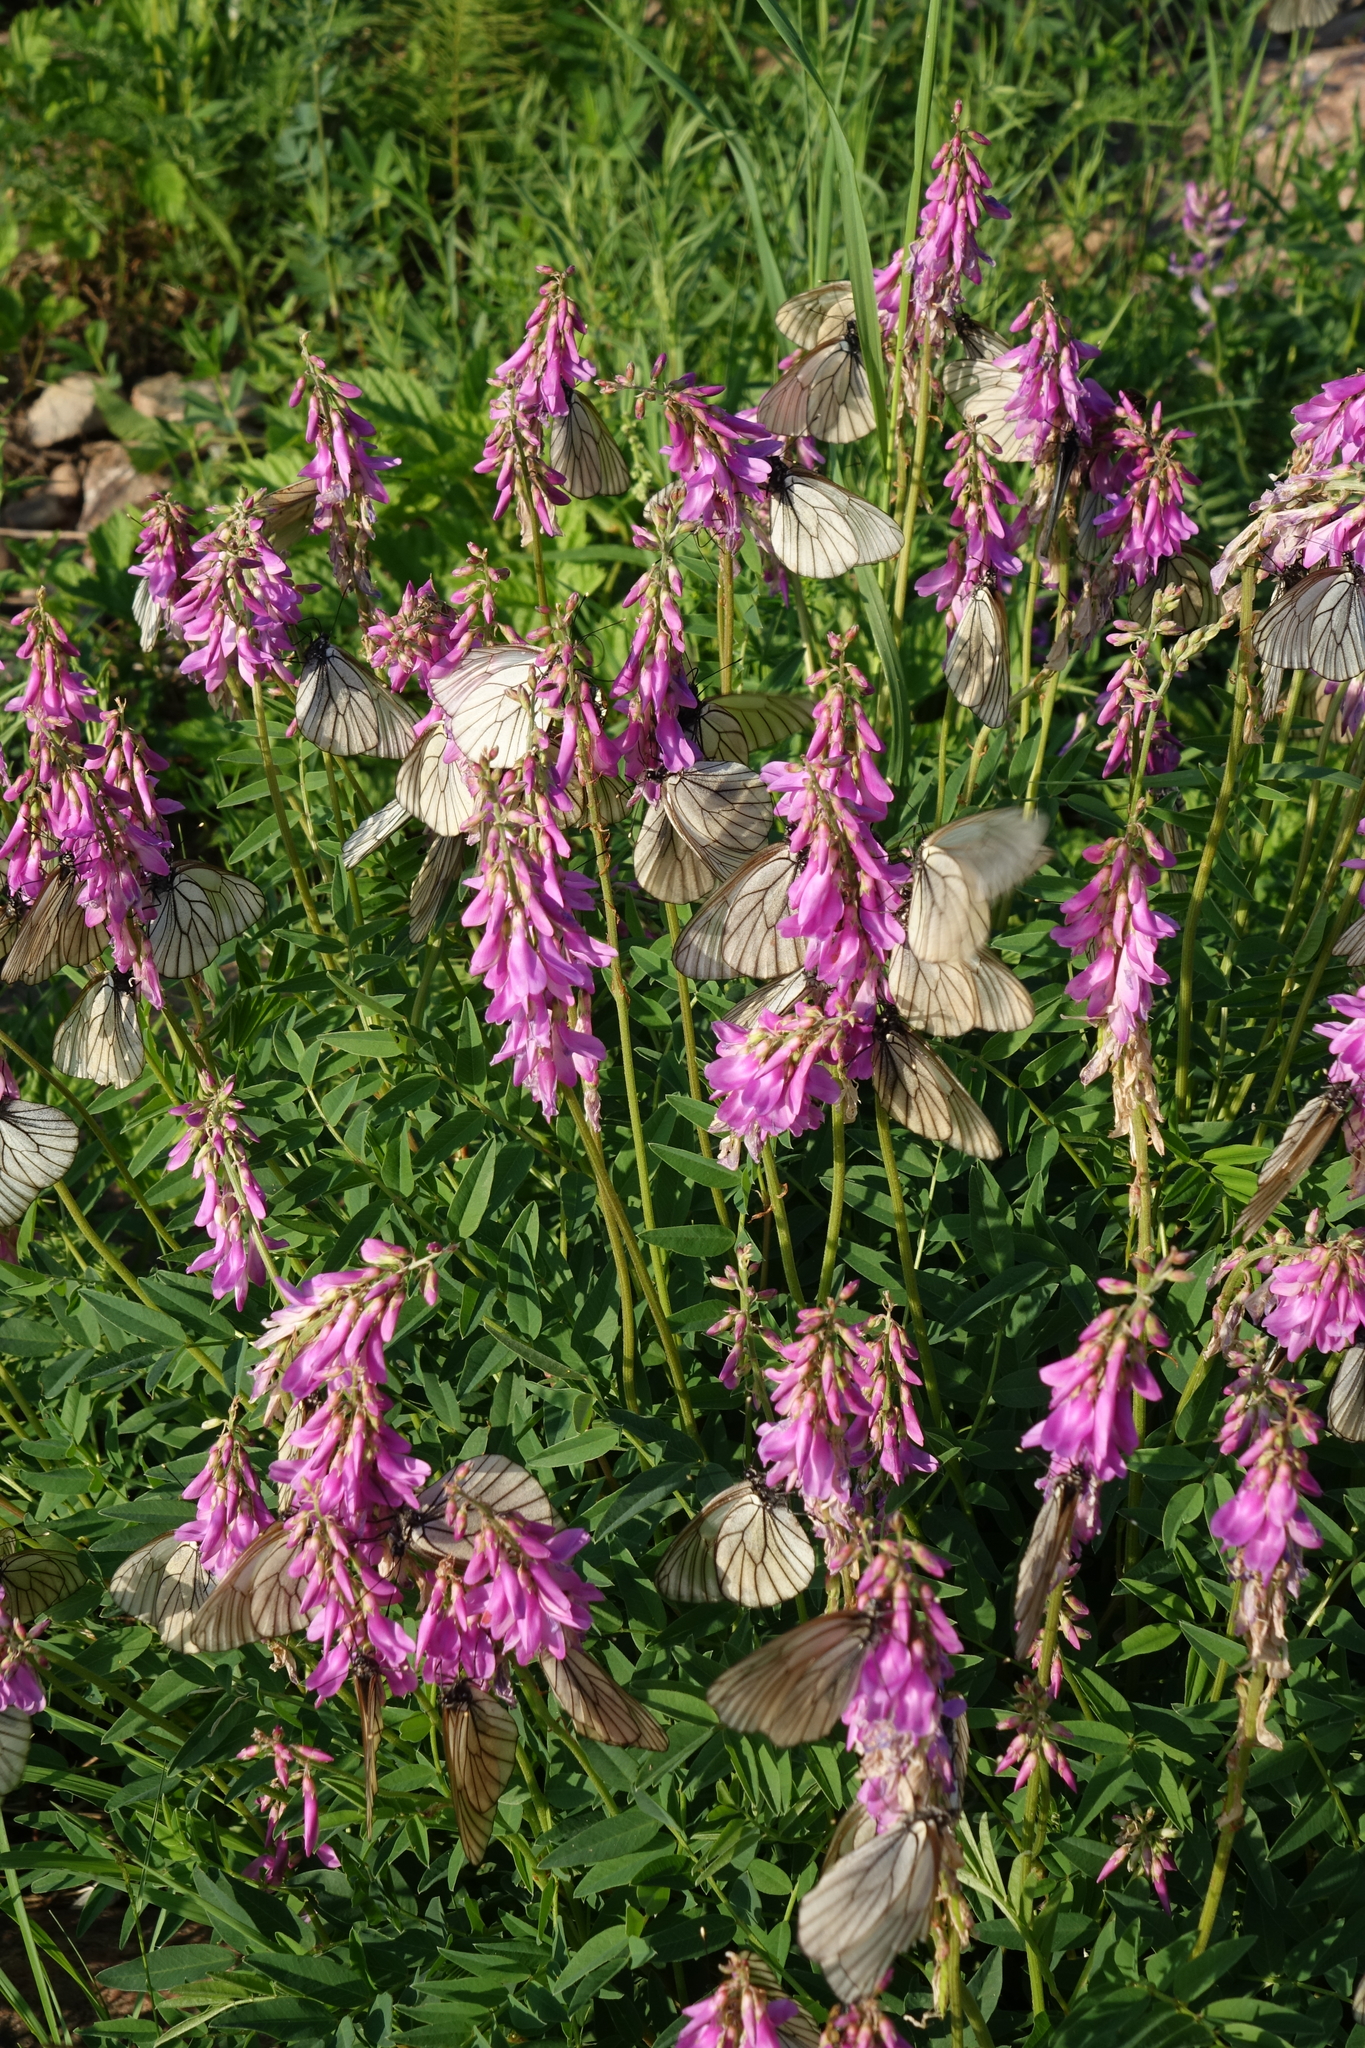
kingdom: Animalia
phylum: Arthropoda
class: Insecta
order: Lepidoptera
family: Pieridae
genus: Aporia
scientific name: Aporia crataegi
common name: Black-veined white
